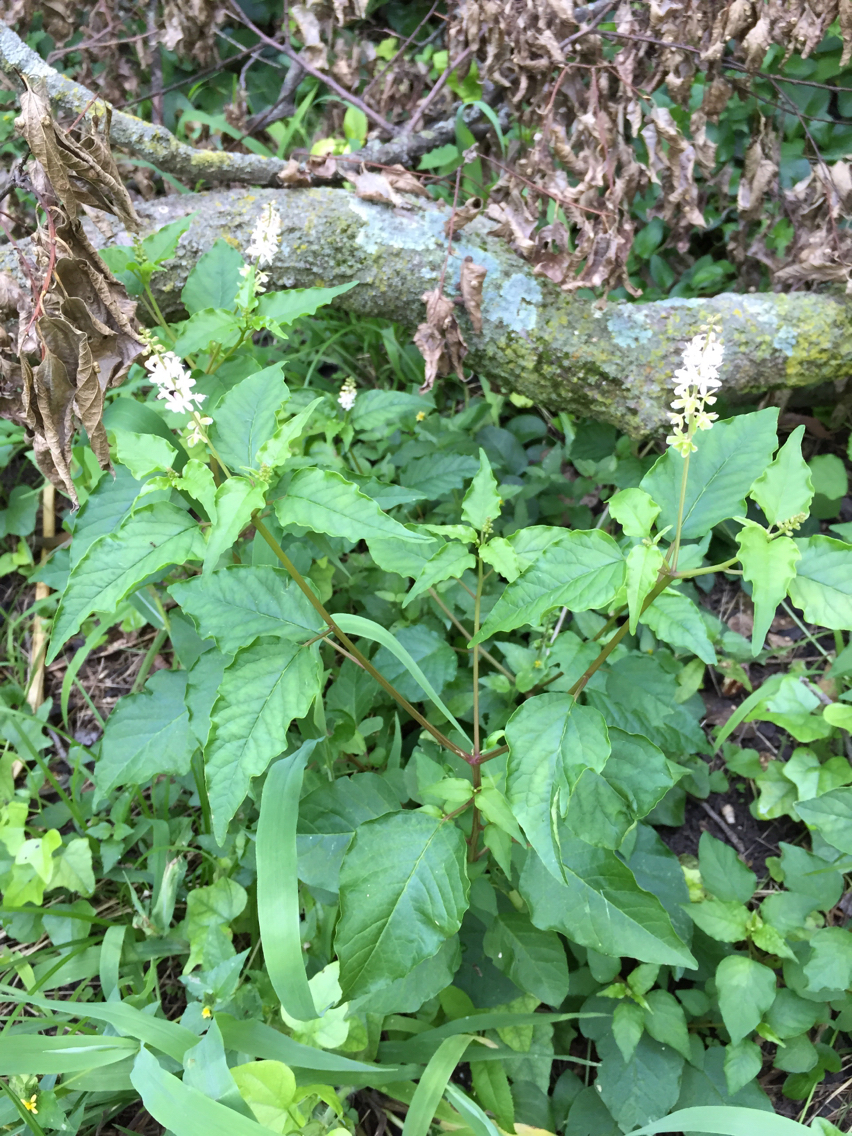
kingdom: Plantae
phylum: Tracheophyta
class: Magnoliopsida
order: Caryophyllales
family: Phytolaccaceae
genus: Rivina
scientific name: Rivina humilis
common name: Rougeplant
